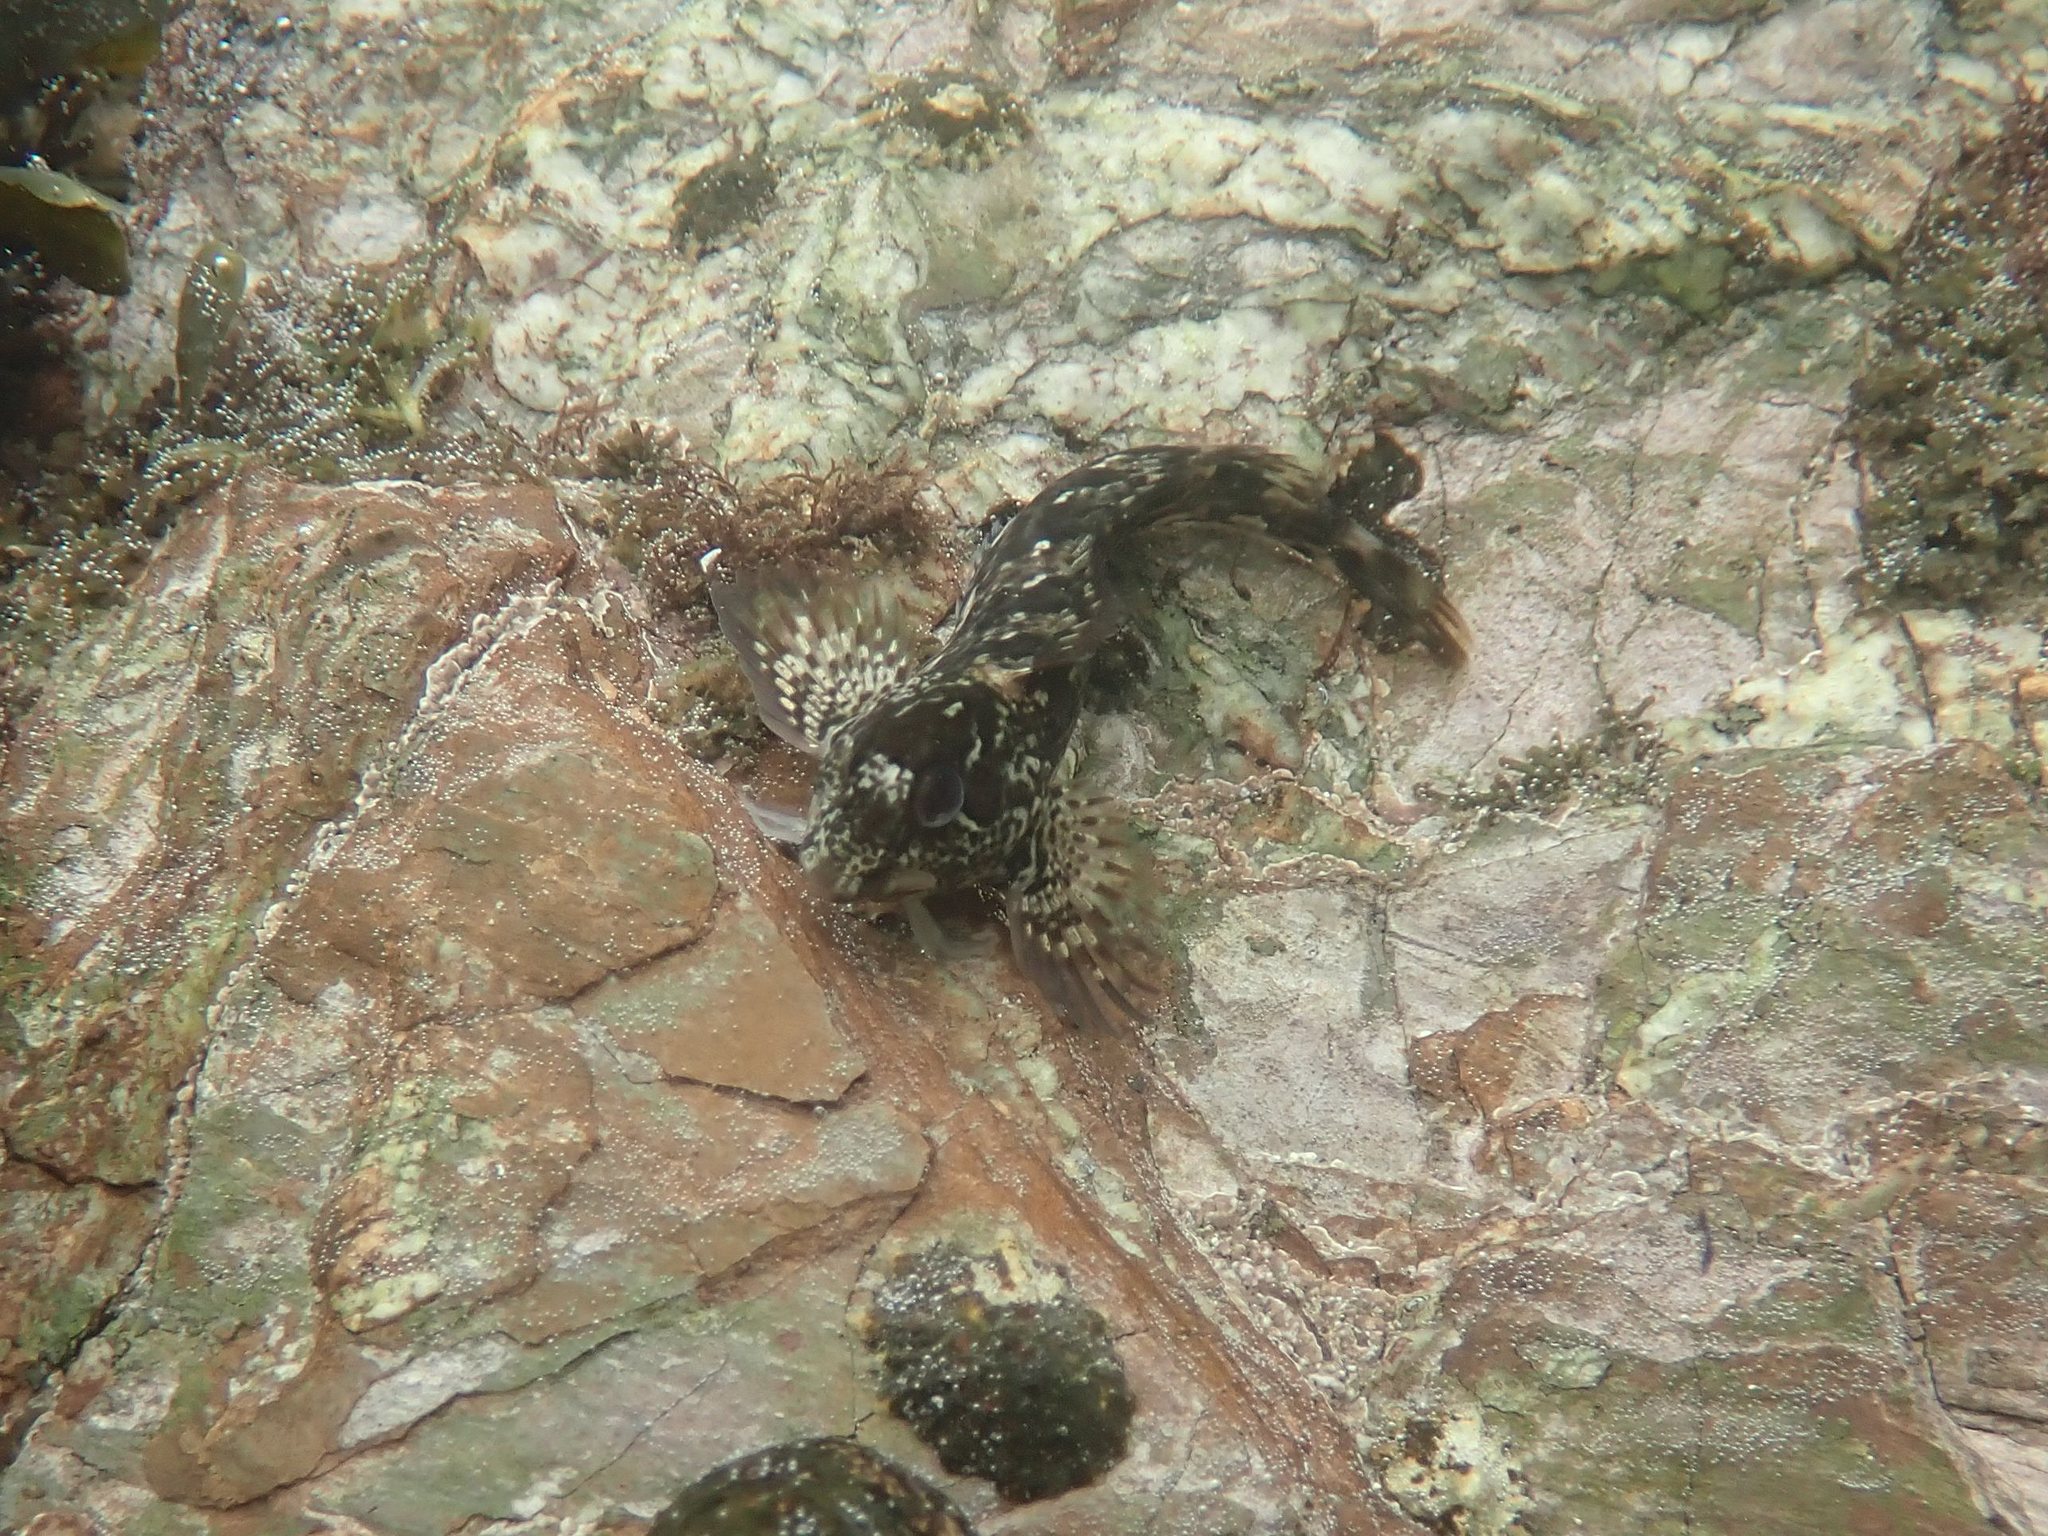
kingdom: Animalia
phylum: Chordata
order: Perciformes
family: Blenniidae
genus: Lipophrys
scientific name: Lipophrys pholis
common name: Shanny
